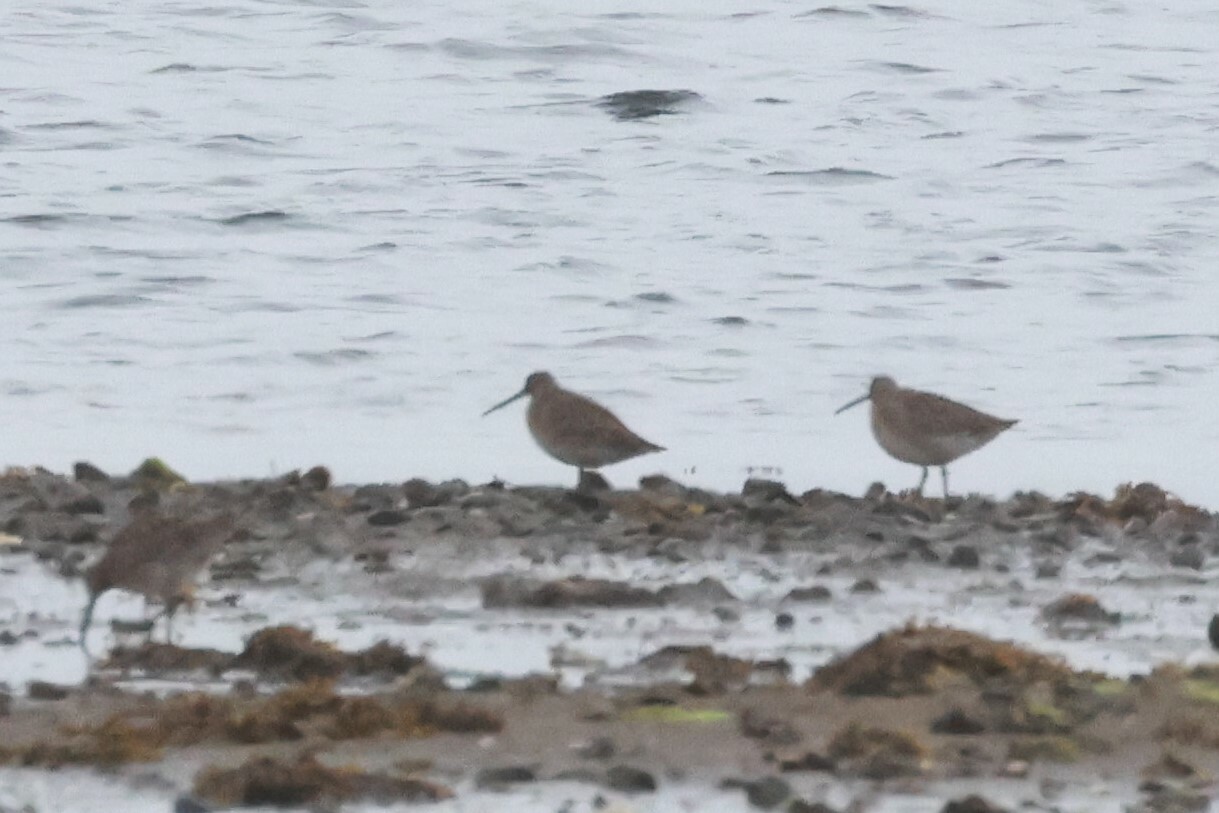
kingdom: Animalia
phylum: Chordata
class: Aves
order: Charadriiformes
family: Scolopacidae
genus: Limnodromus
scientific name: Limnodromus griseus
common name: Short-billed dowitcher
